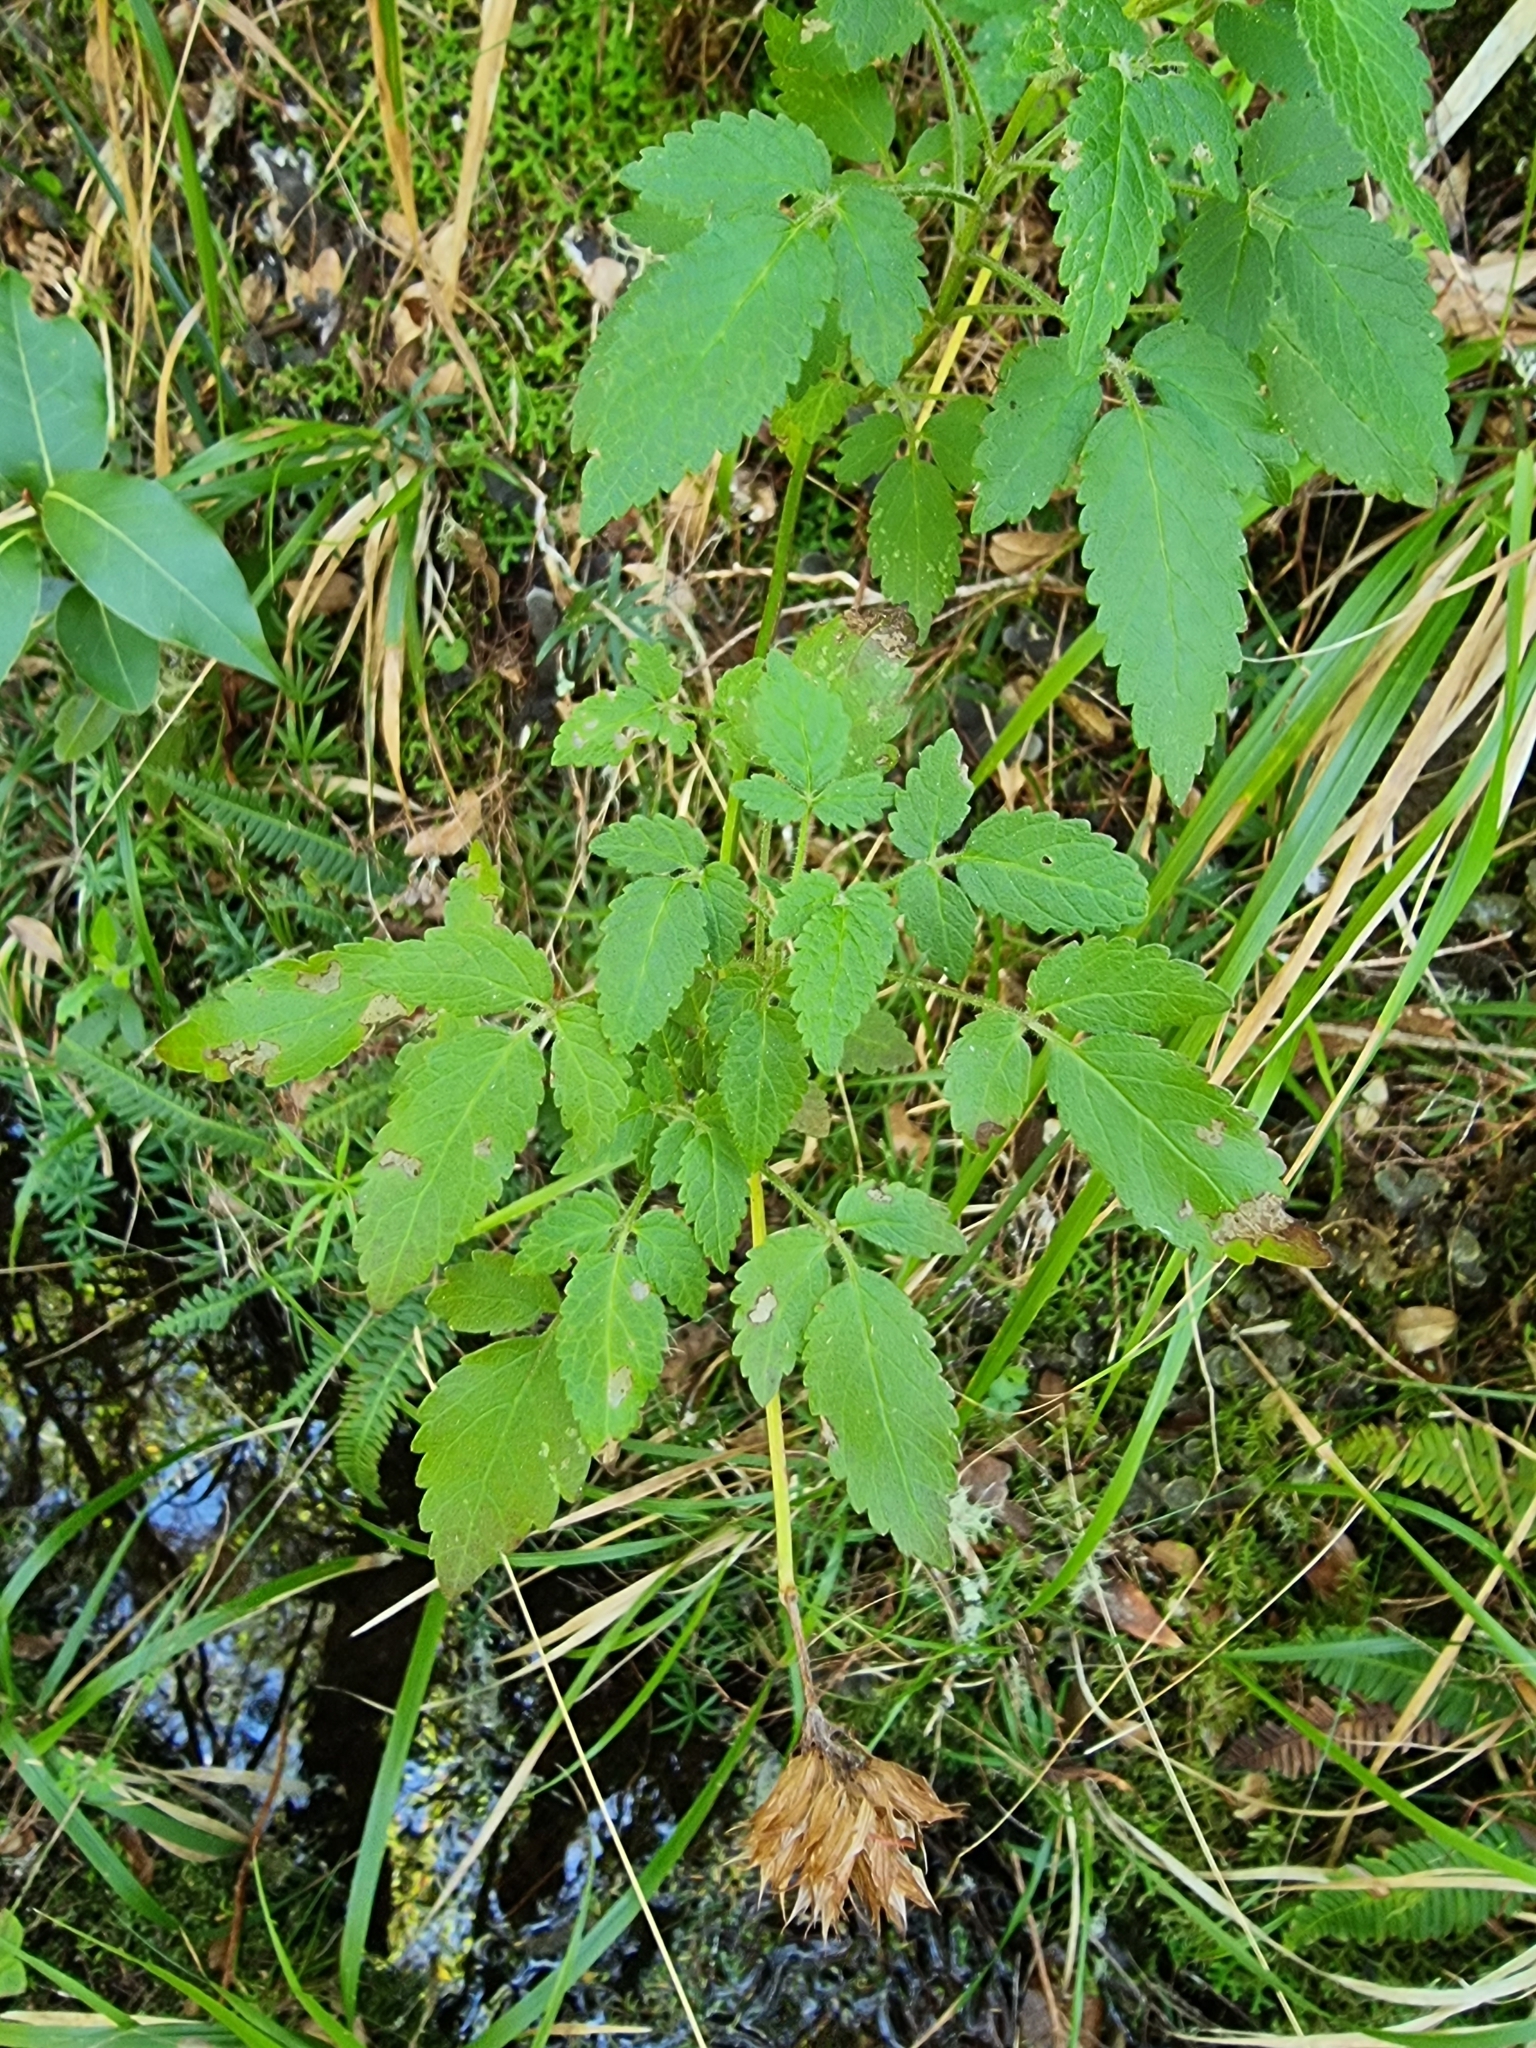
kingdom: Plantae
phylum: Tracheophyta
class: Magnoliopsida
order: Lamiales
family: Lamiaceae
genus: Cedronella
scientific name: Cedronella canariensis
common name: Canary islands balm
